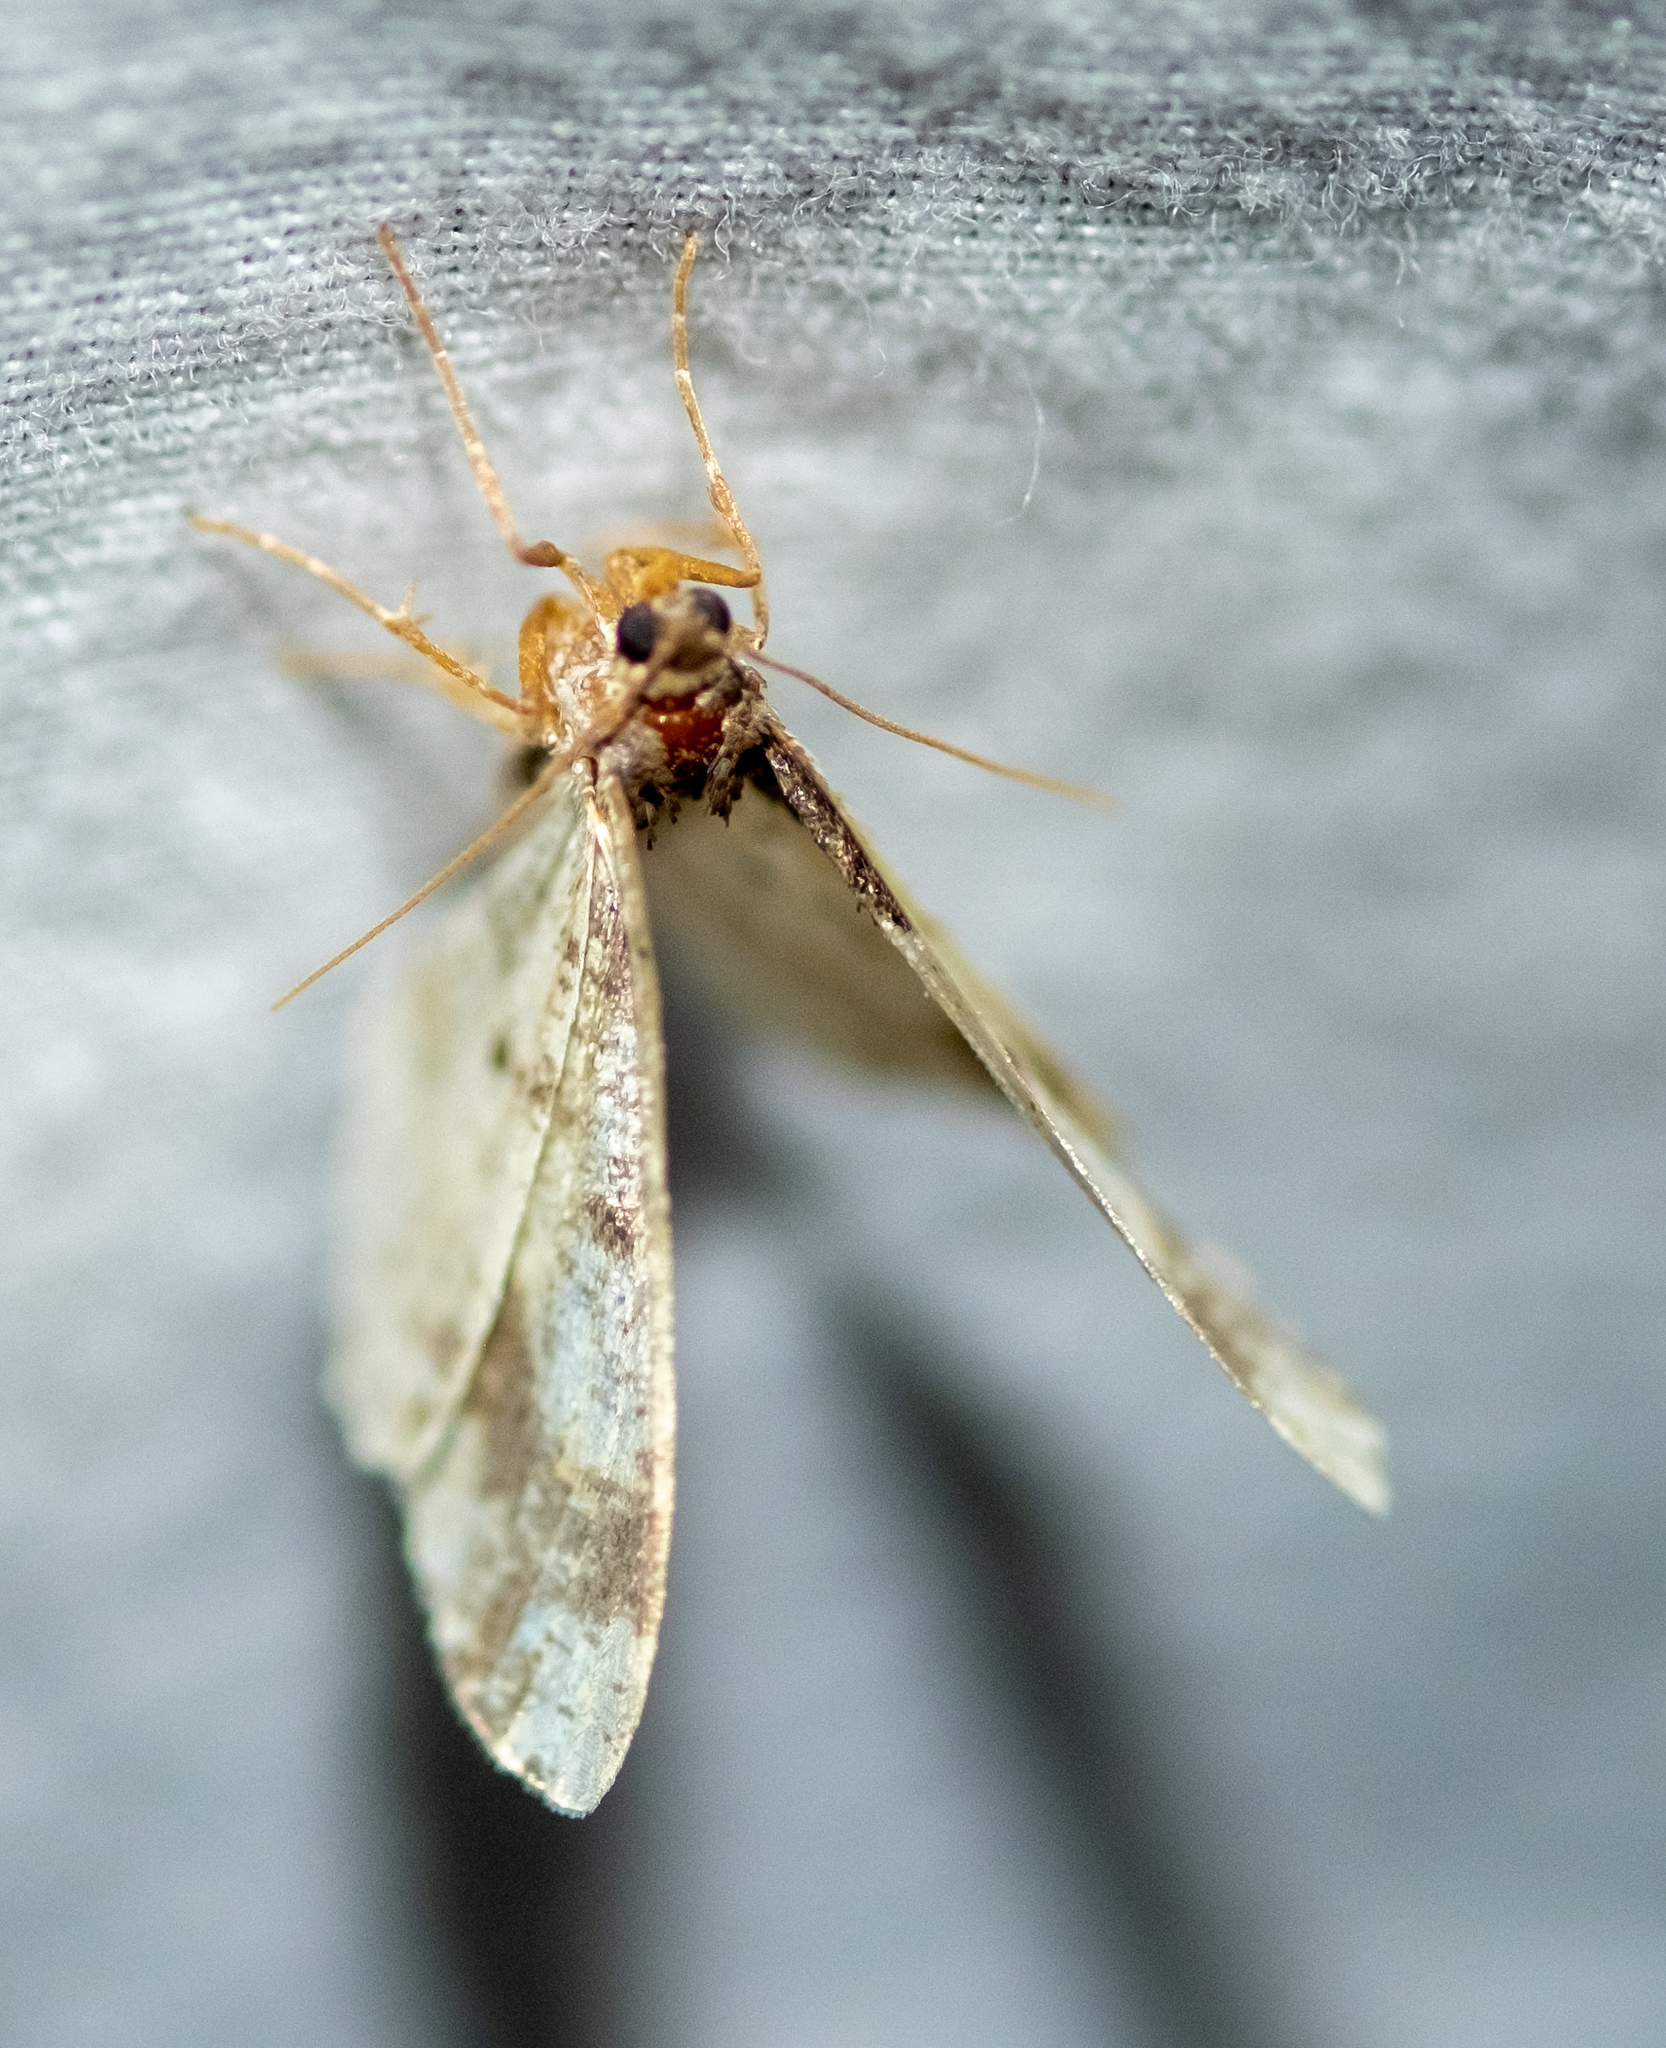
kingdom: Animalia
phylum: Arthropoda
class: Insecta
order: Lepidoptera
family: Geometridae
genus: Ligdia
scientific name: Ligdia adustata
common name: Scorched carpet
